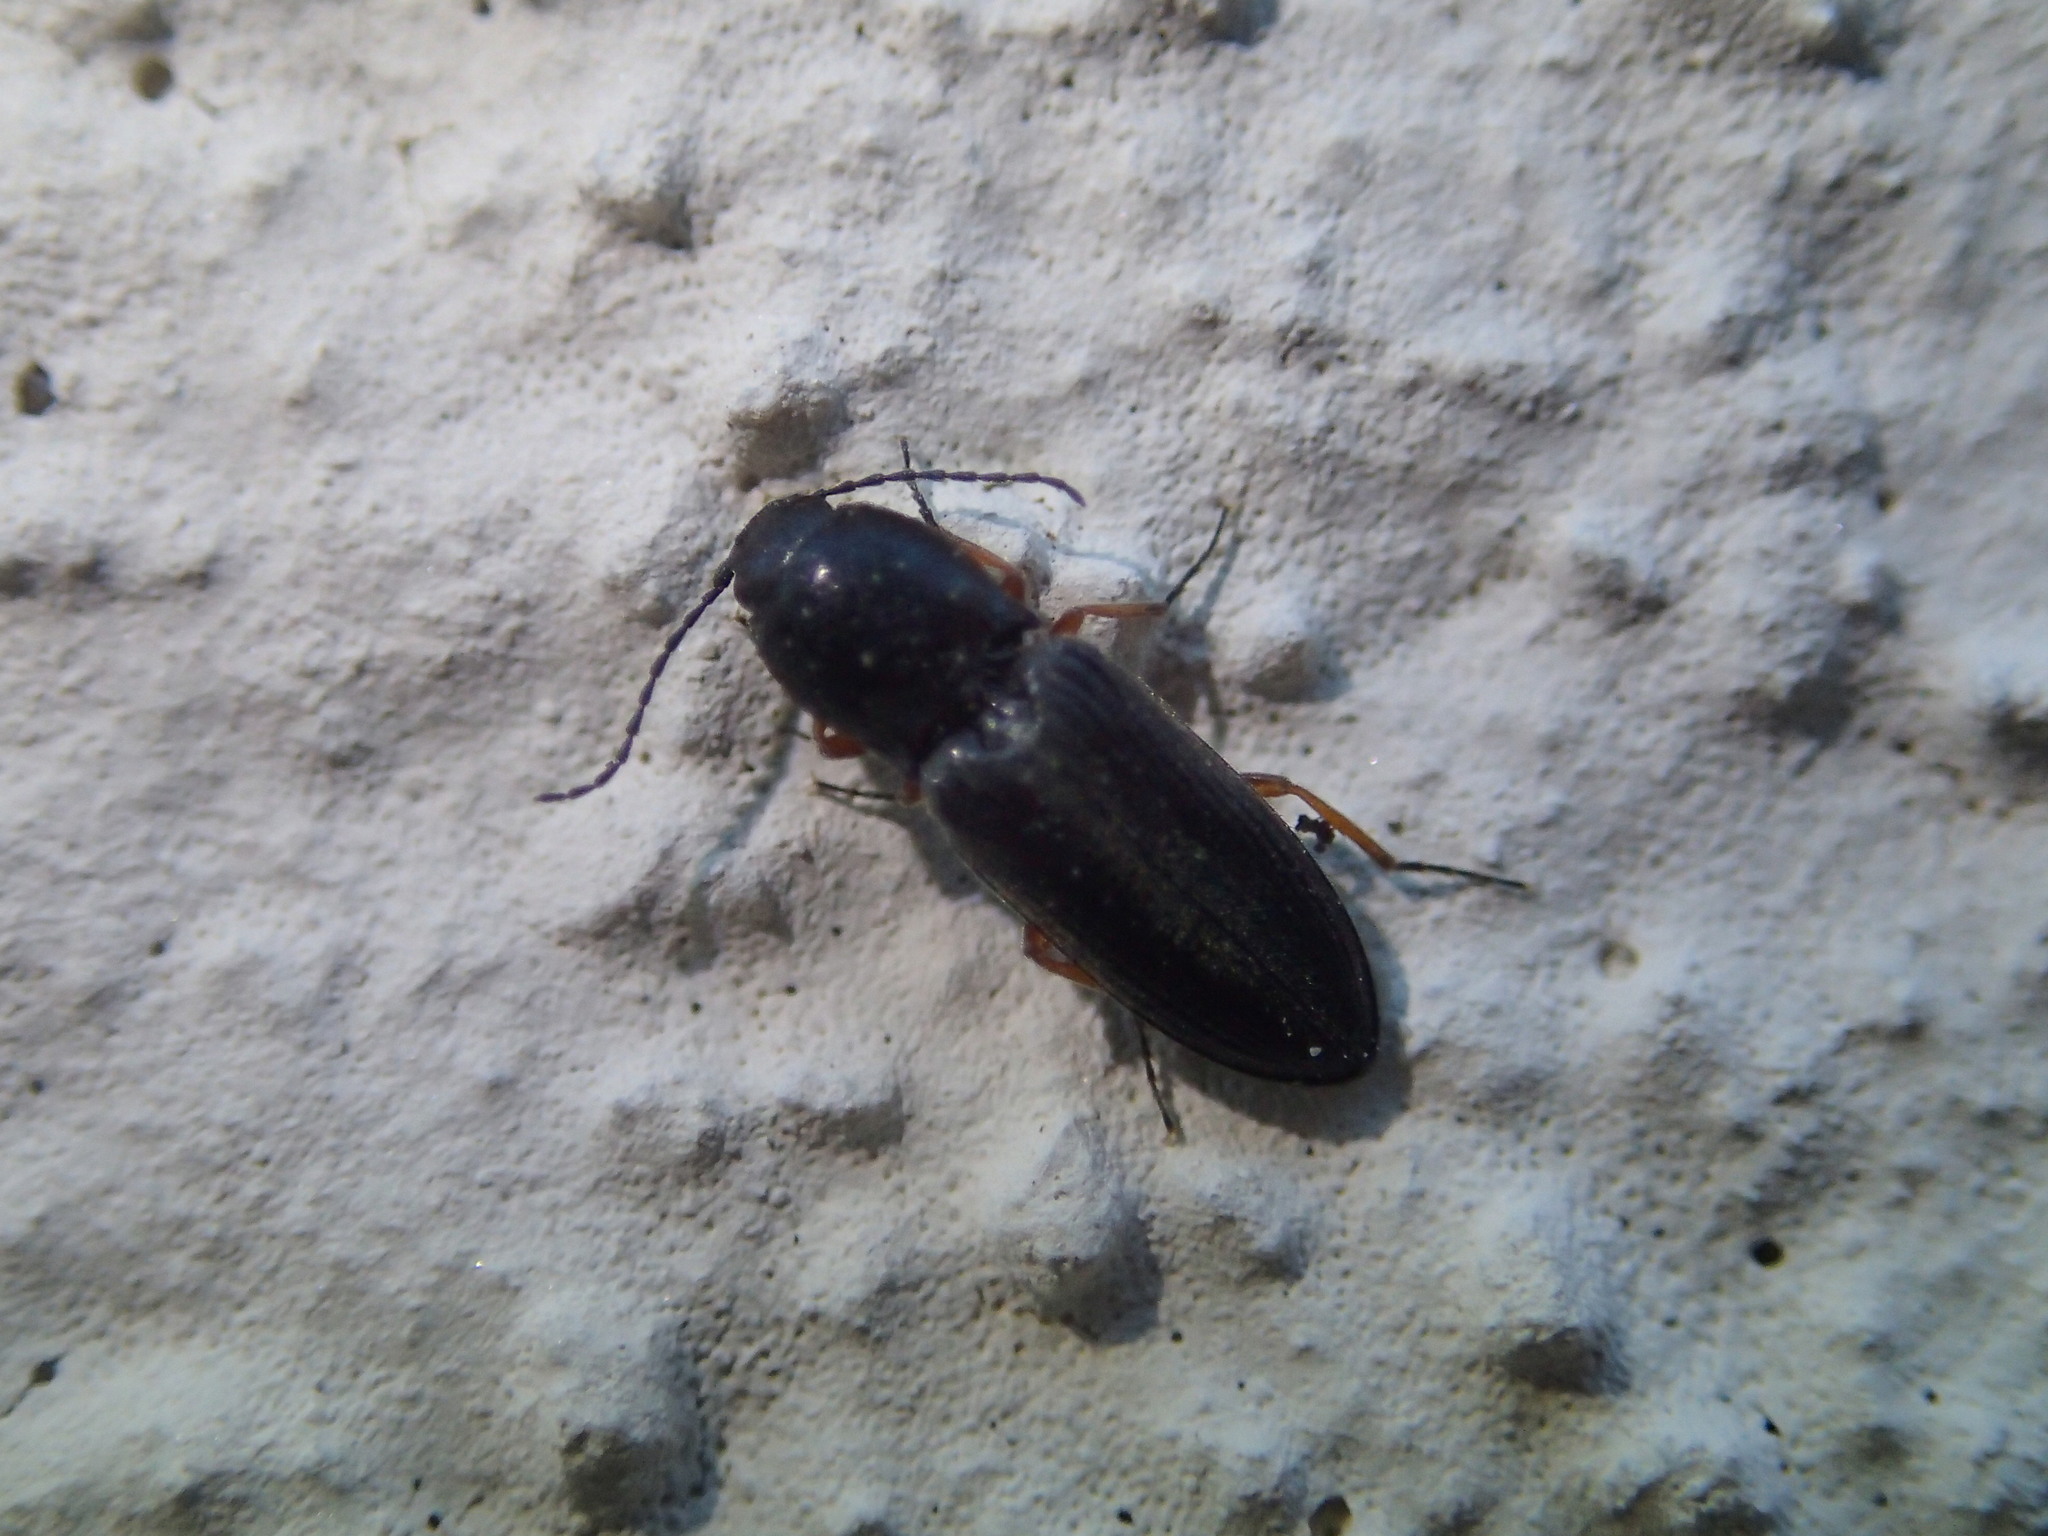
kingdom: Animalia
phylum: Arthropoda
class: Insecta
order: Coleoptera
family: Elateridae
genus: Cardiophorus
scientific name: Cardiophorus rufipes
